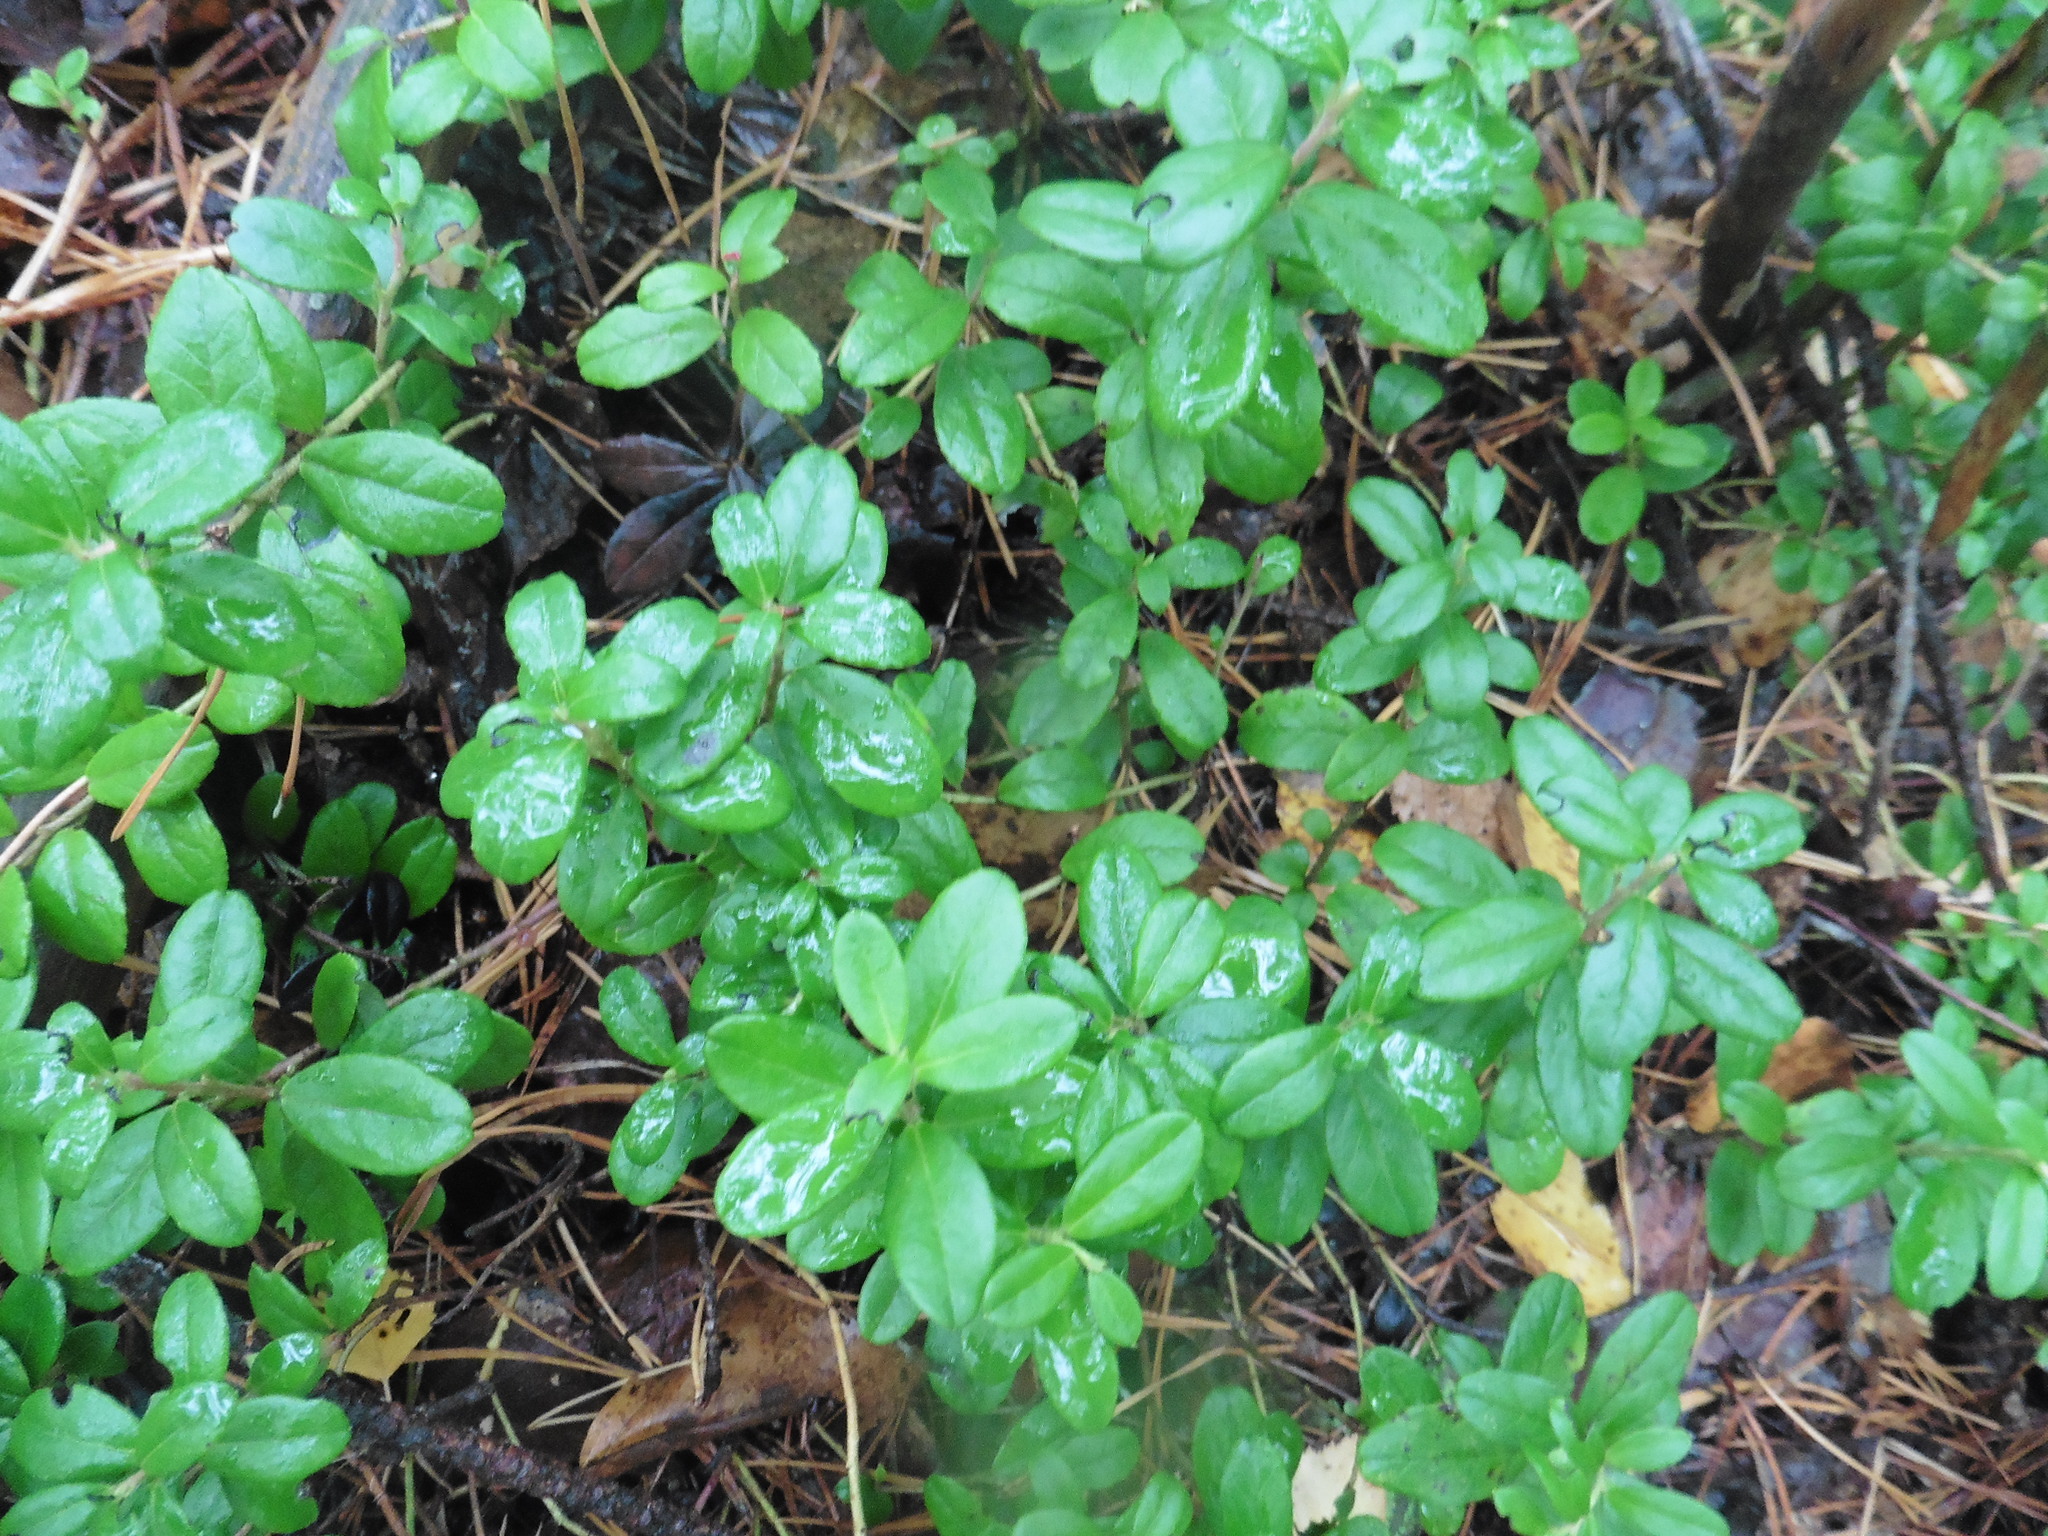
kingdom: Plantae
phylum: Tracheophyta
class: Magnoliopsida
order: Ericales
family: Ericaceae
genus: Vaccinium
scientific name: Vaccinium vitis-idaea
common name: Cowberry
